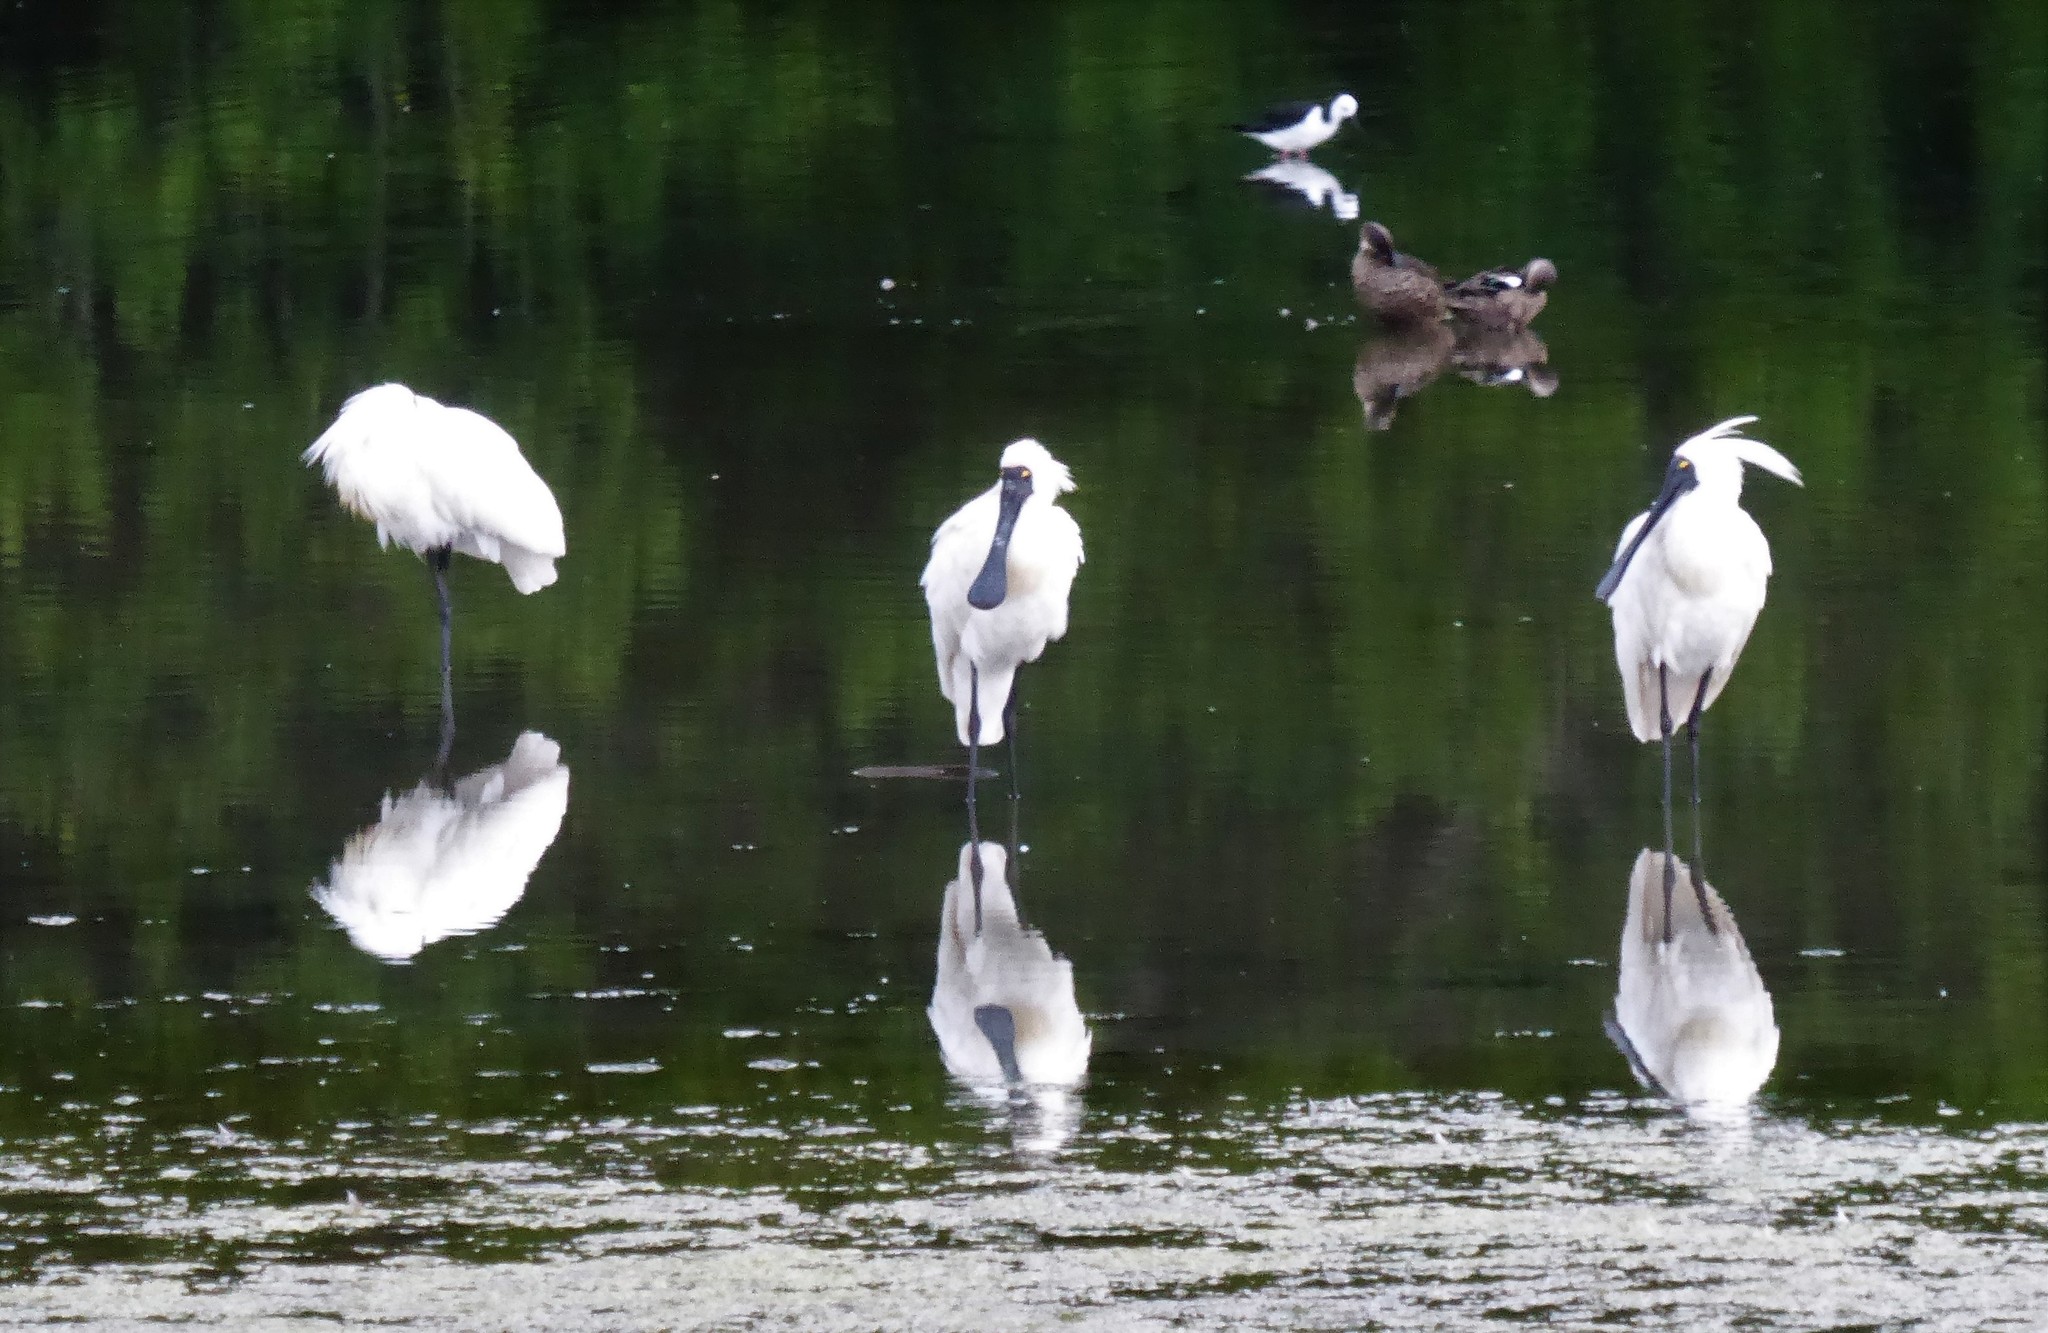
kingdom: Animalia
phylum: Chordata
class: Aves
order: Pelecaniformes
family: Threskiornithidae
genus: Platalea
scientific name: Platalea regia
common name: Royal spoonbill
